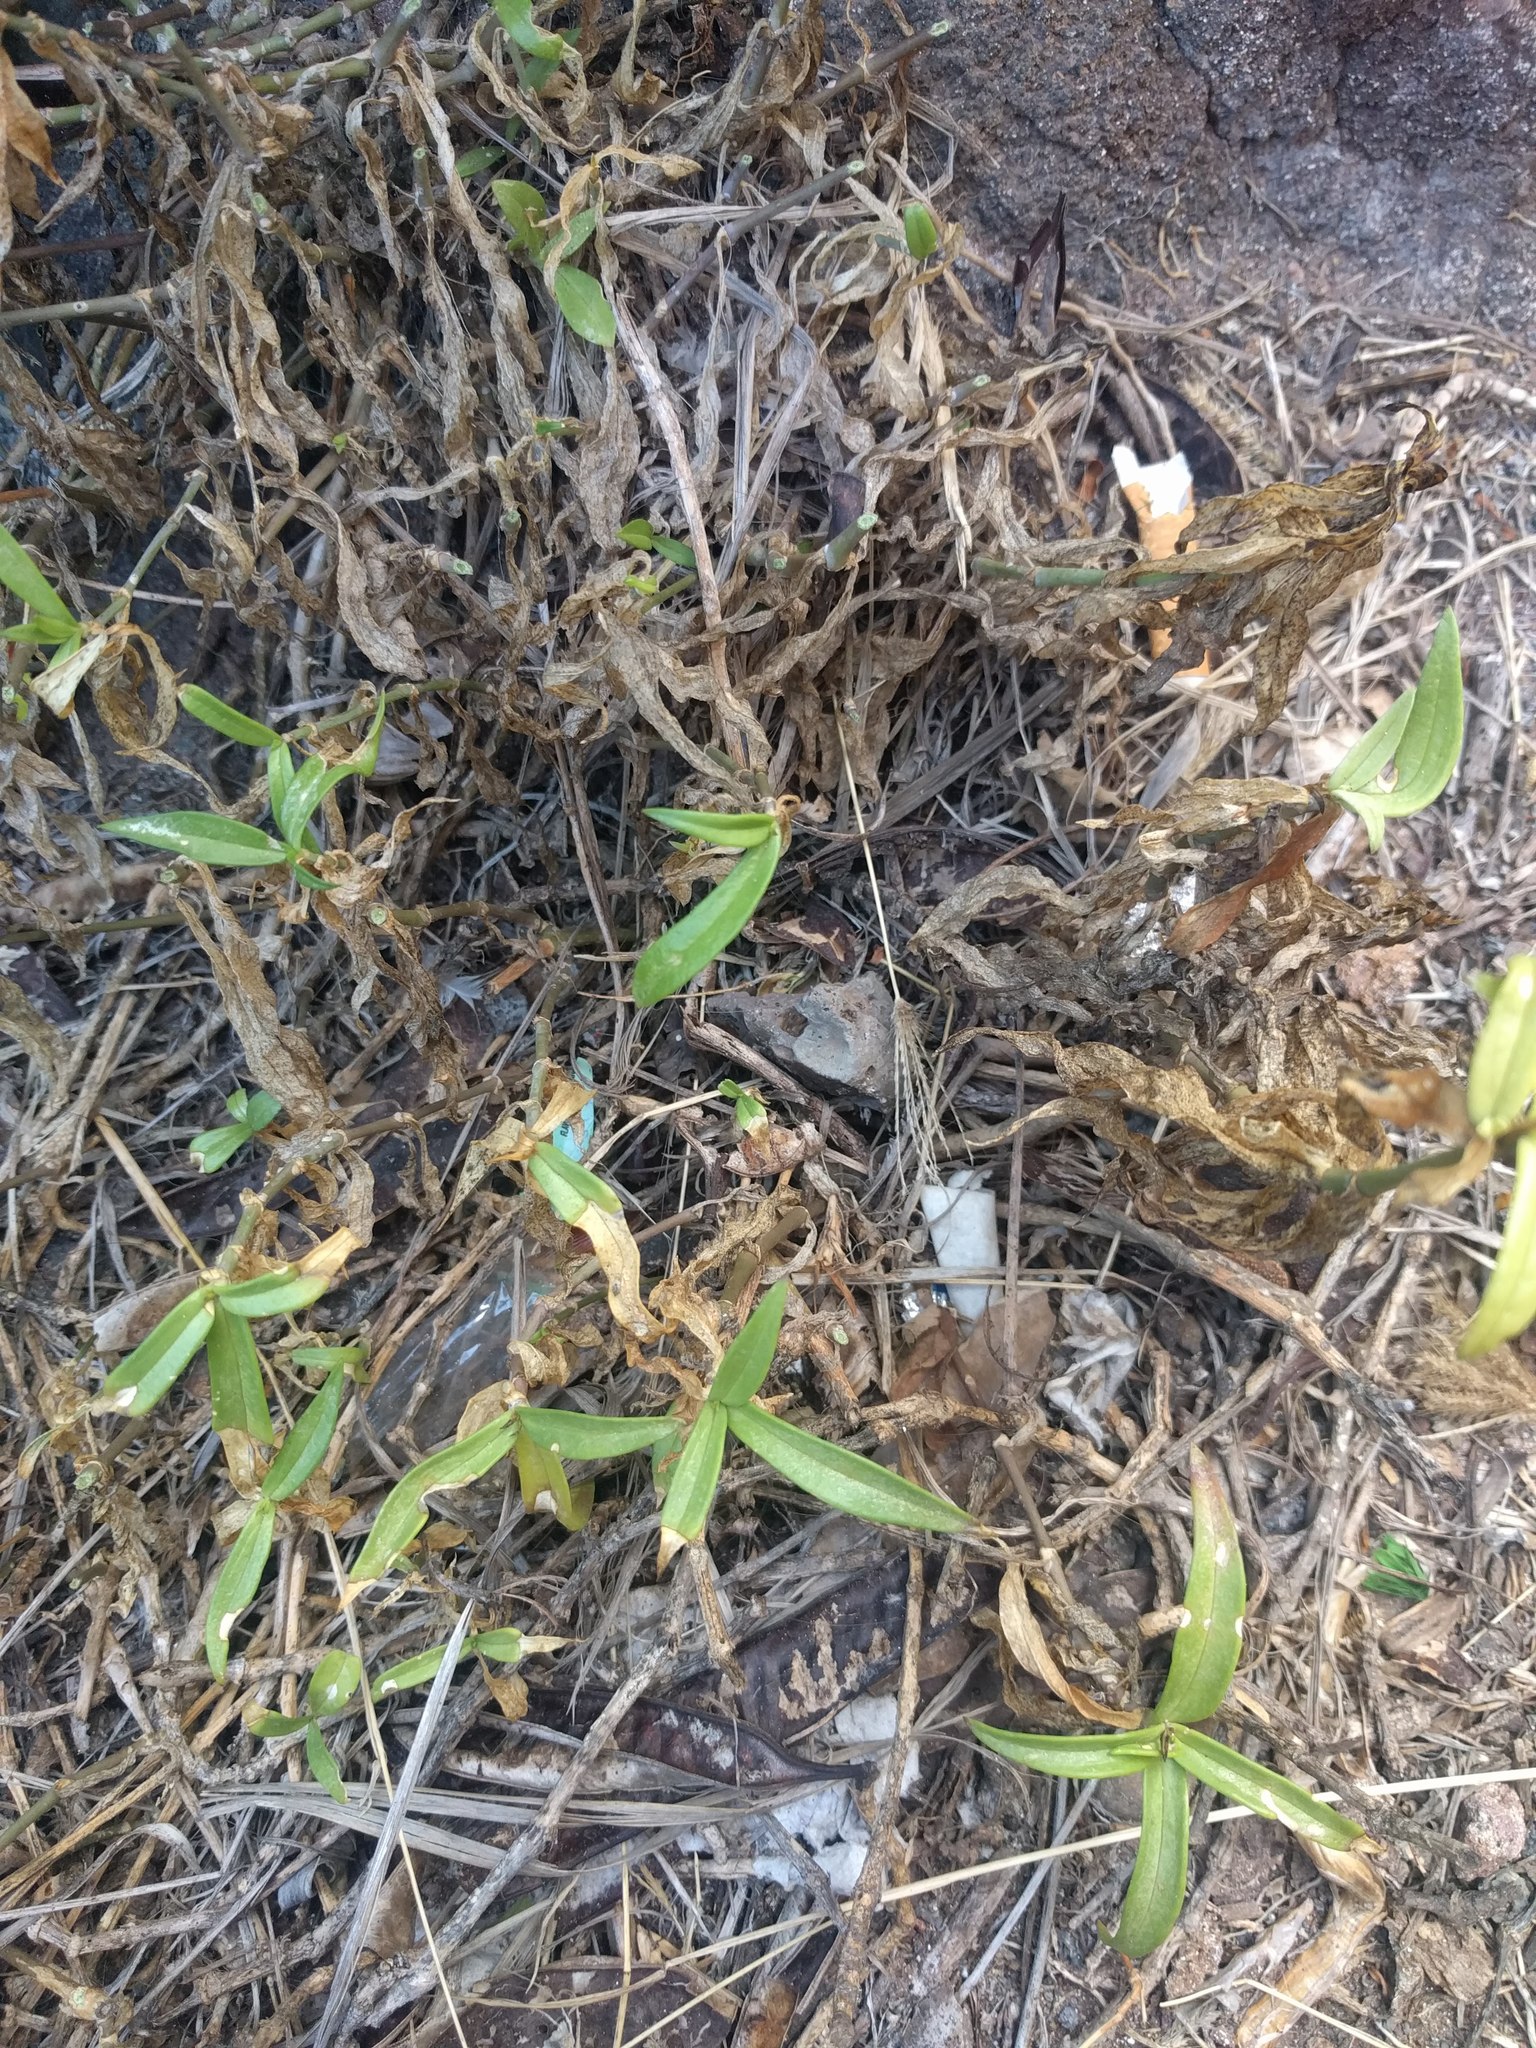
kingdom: Plantae
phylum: Tracheophyta
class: Magnoliopsida
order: Caryophyllales
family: Caryophyllaceae
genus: Schiedea
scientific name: Schiedea globosa
